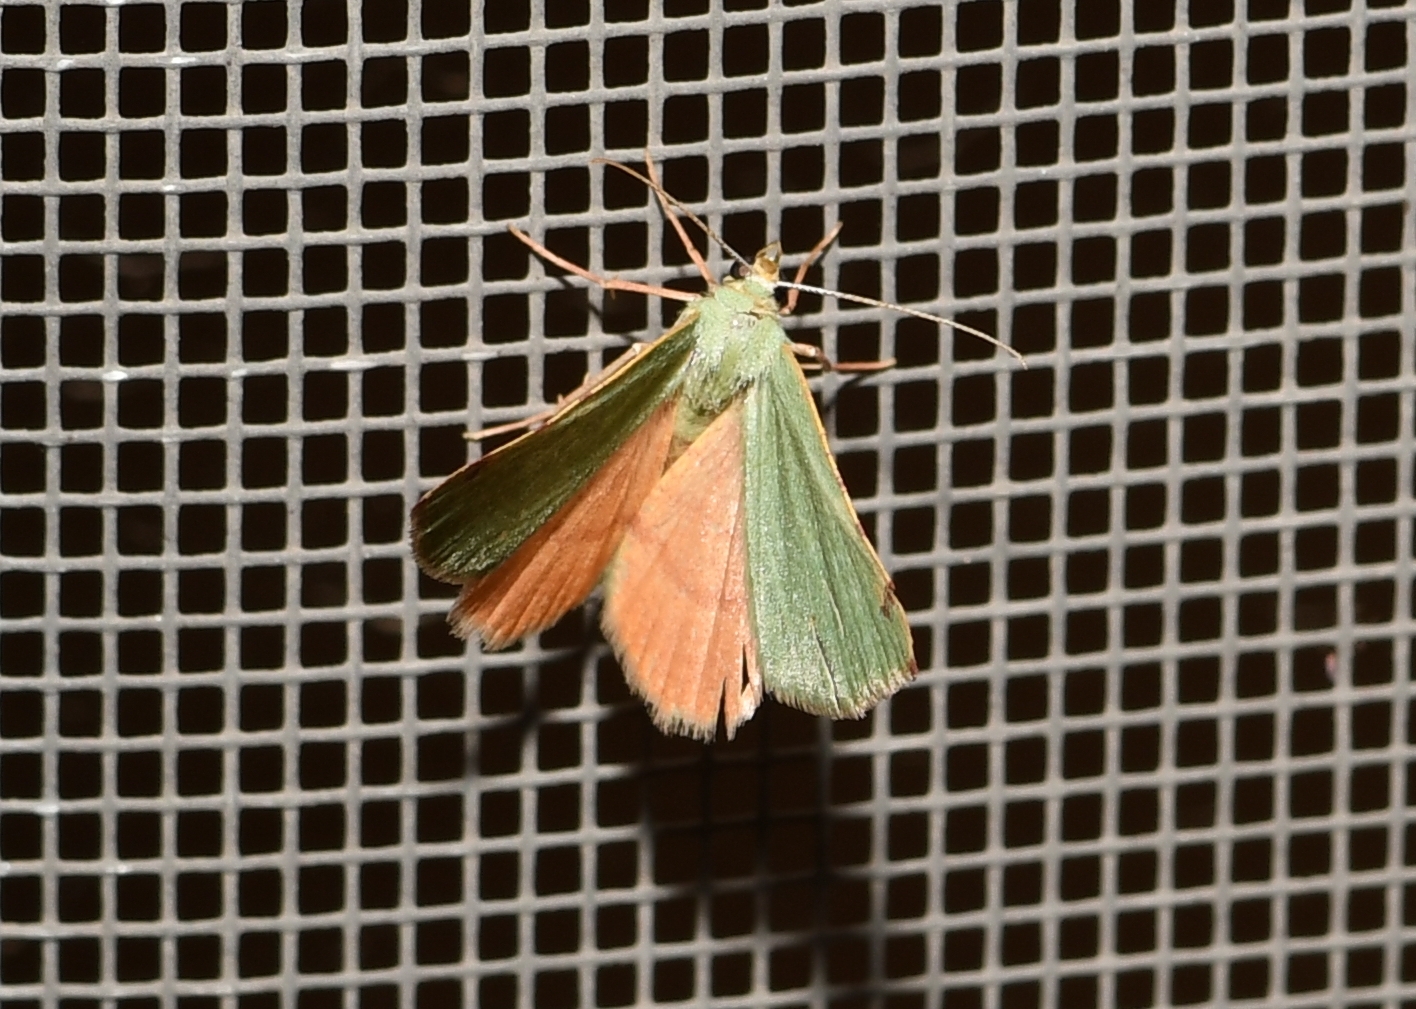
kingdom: Animalia
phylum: Arthropoda
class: Insecta
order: Lepidoptera
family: Geometridae
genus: Chloraspilates
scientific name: Chloraspilates bicoloraria
